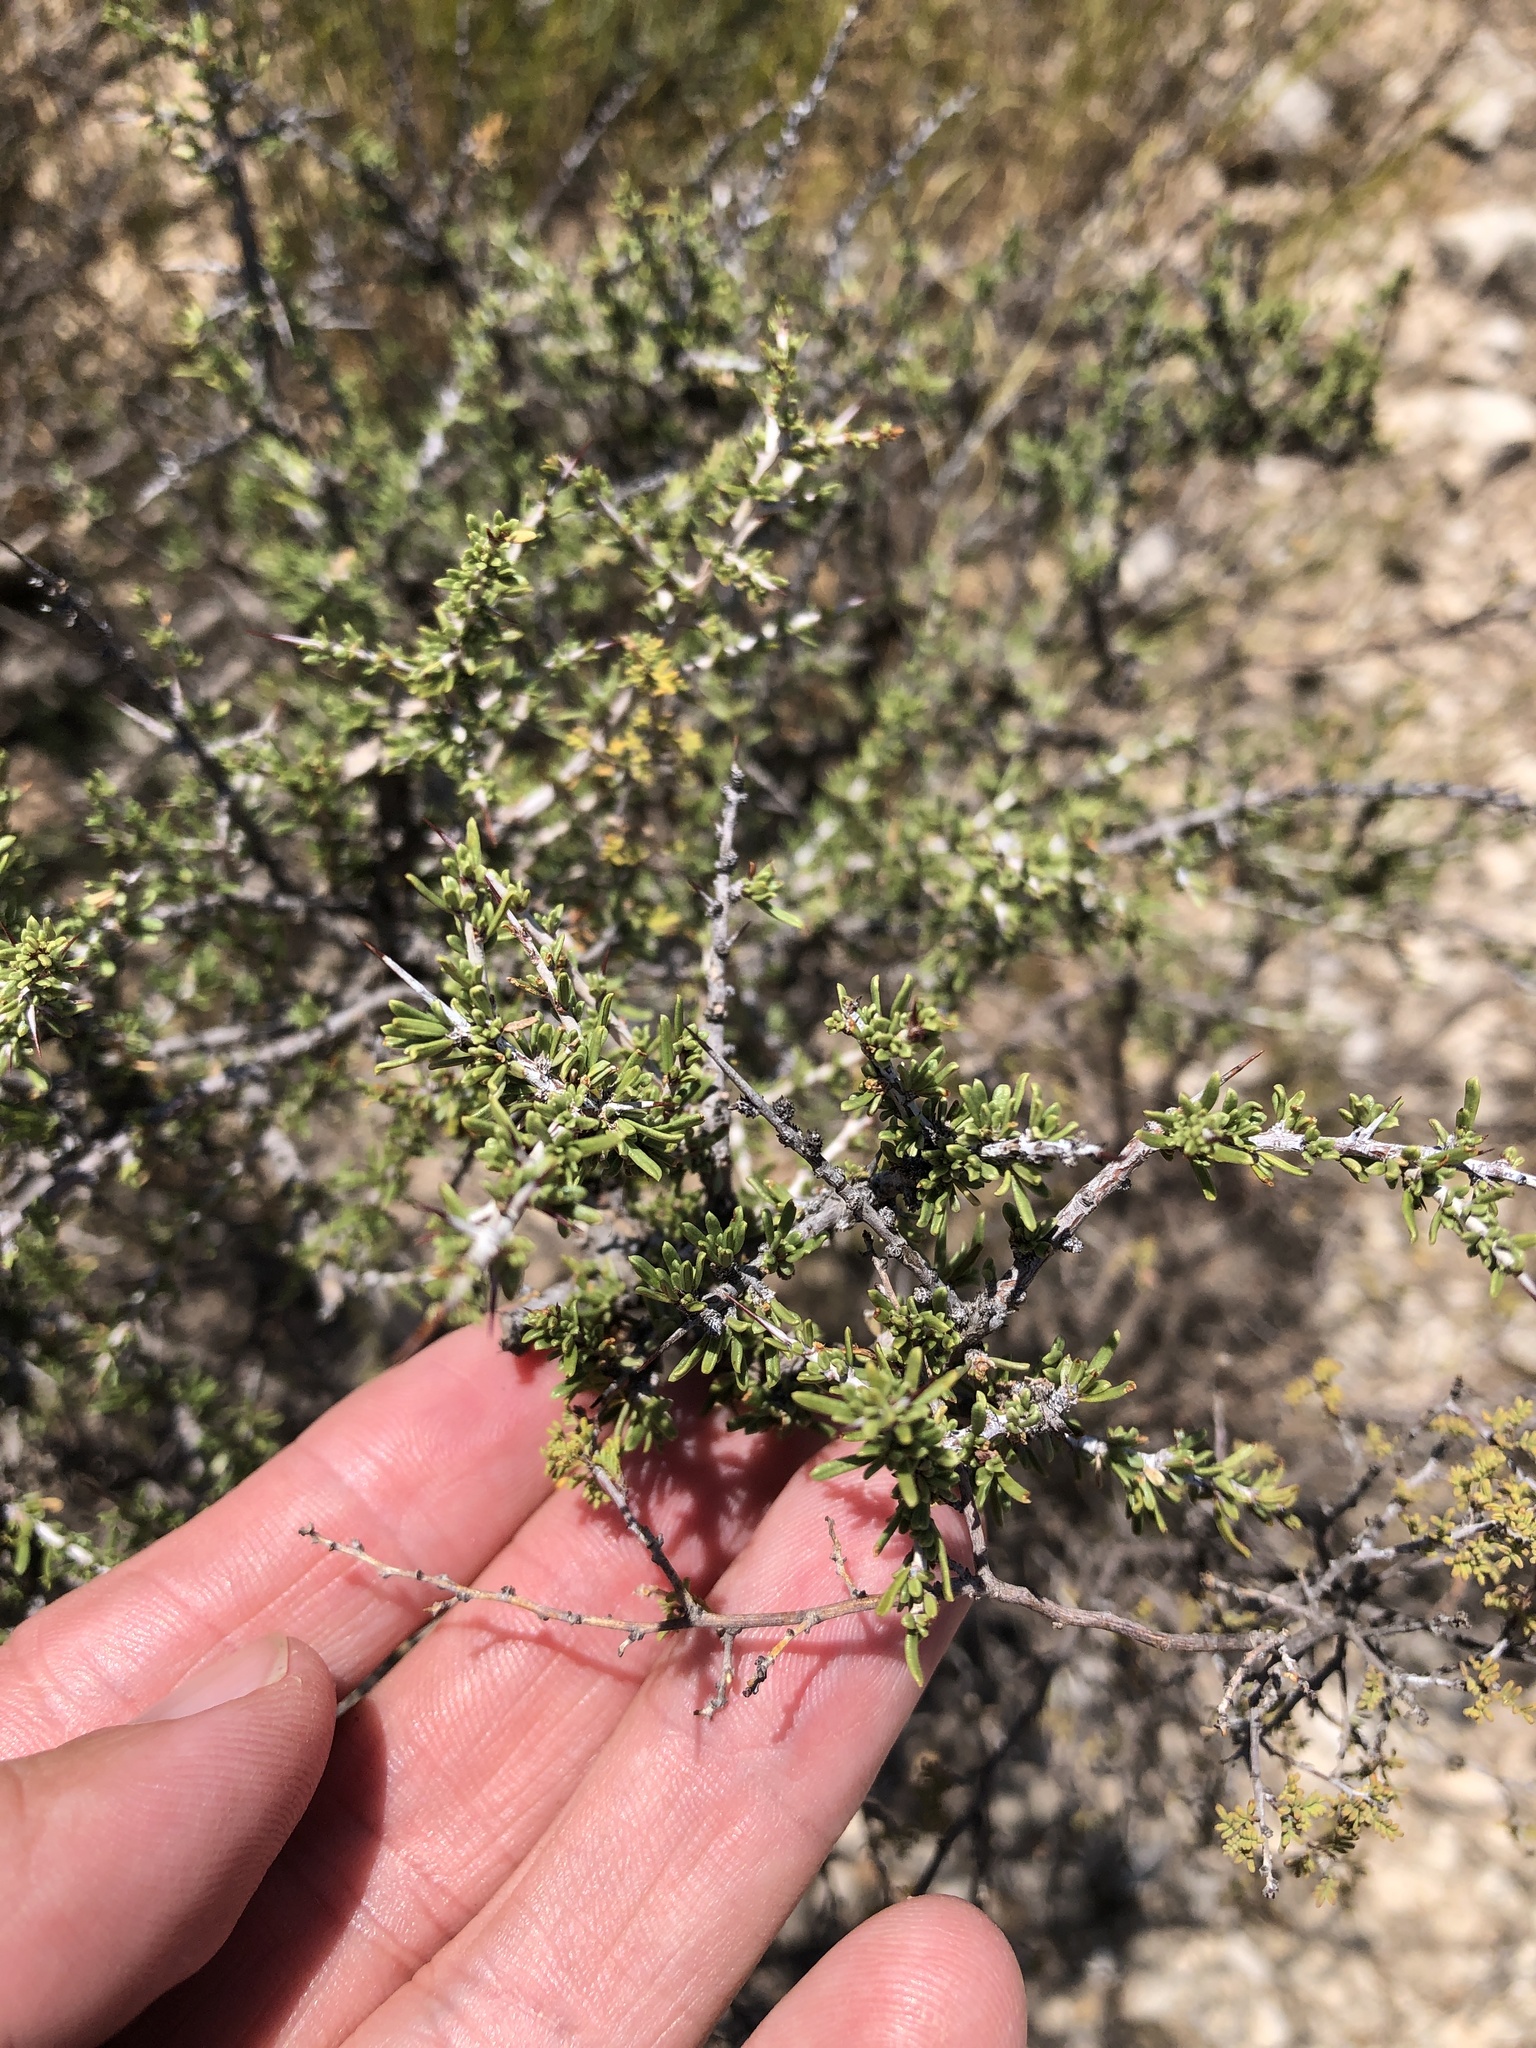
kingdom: Plantae
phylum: Tracheophyta
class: Magnoliopsida
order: Rosales
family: Rhamnaceae
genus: Condalia
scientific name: Condalia ericoides
